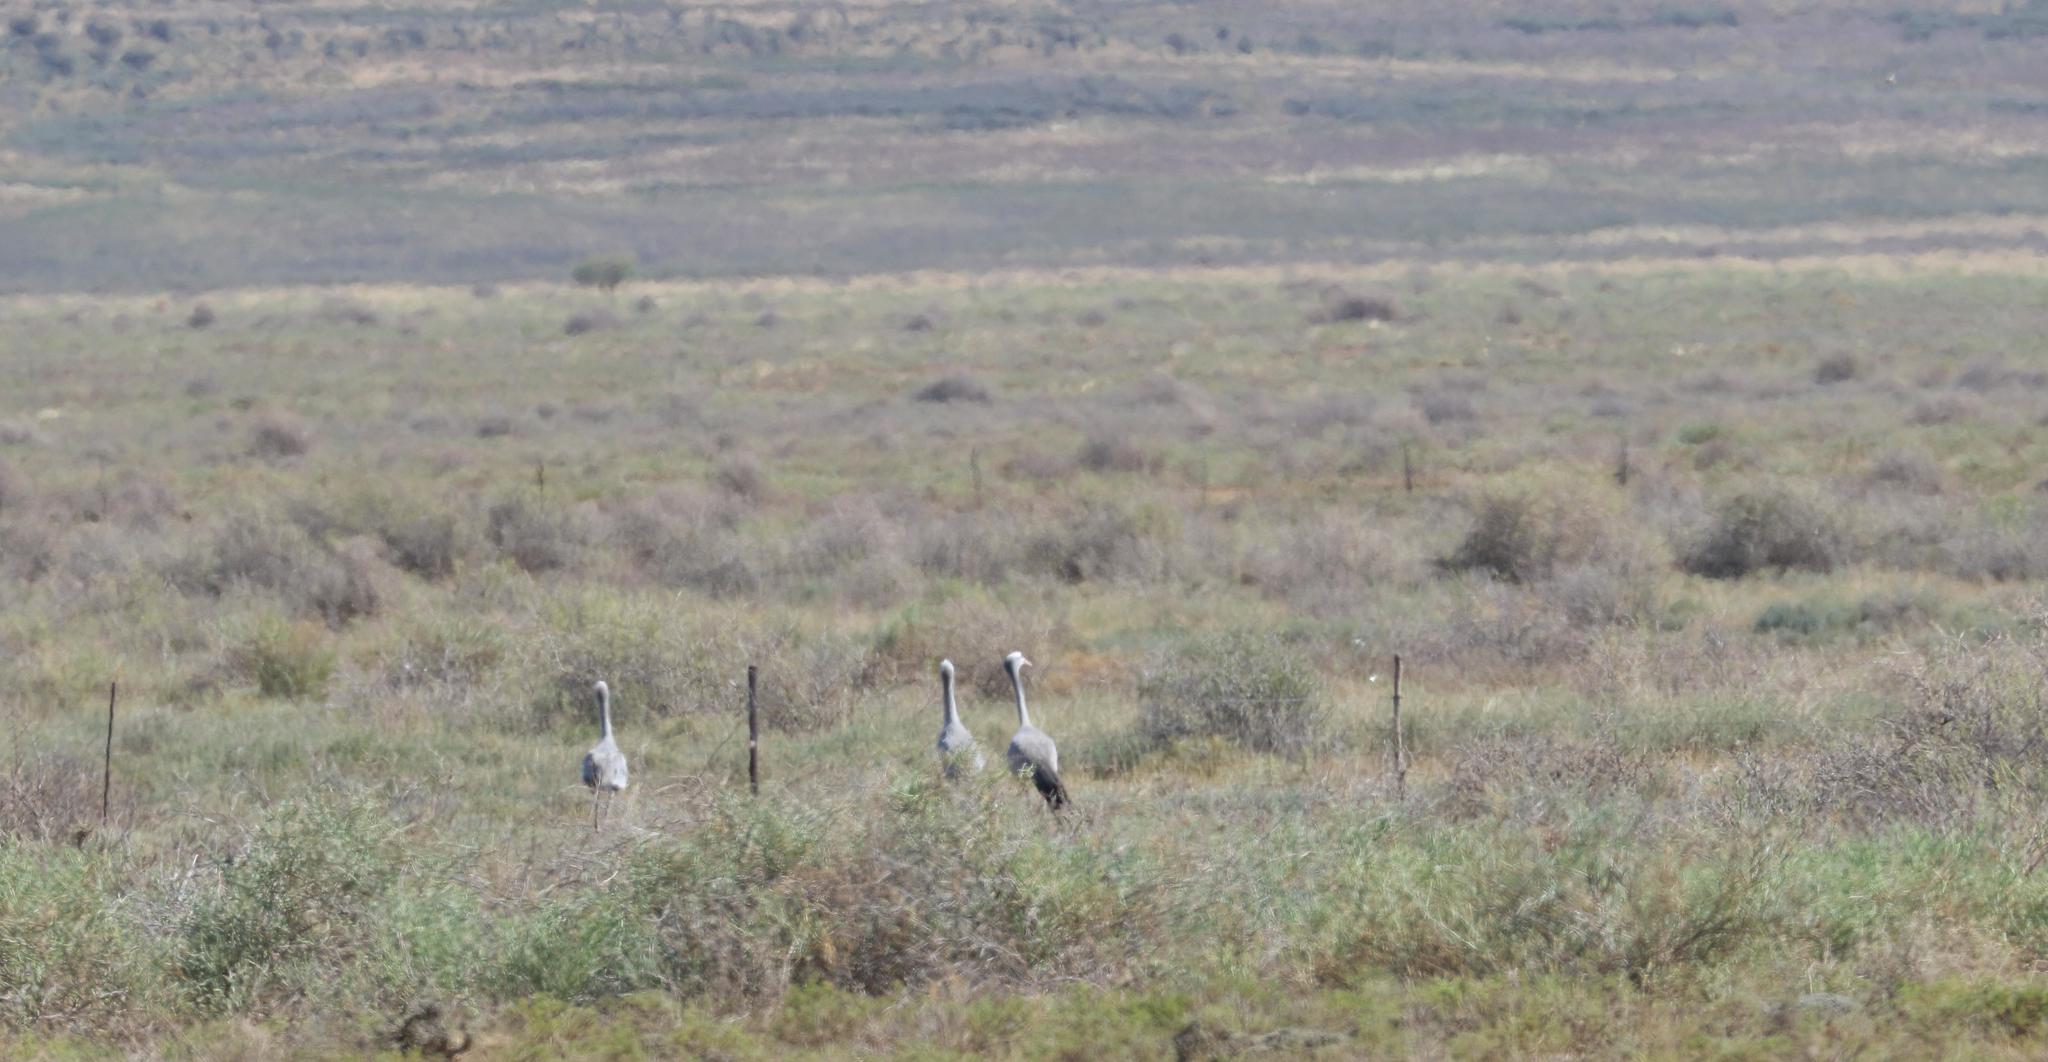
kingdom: Animalia
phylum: Chordata
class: Aves
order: Gruiformes
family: Gruidae
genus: Anthropoides
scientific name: Anthropoides paradiseus
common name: Blue crane
